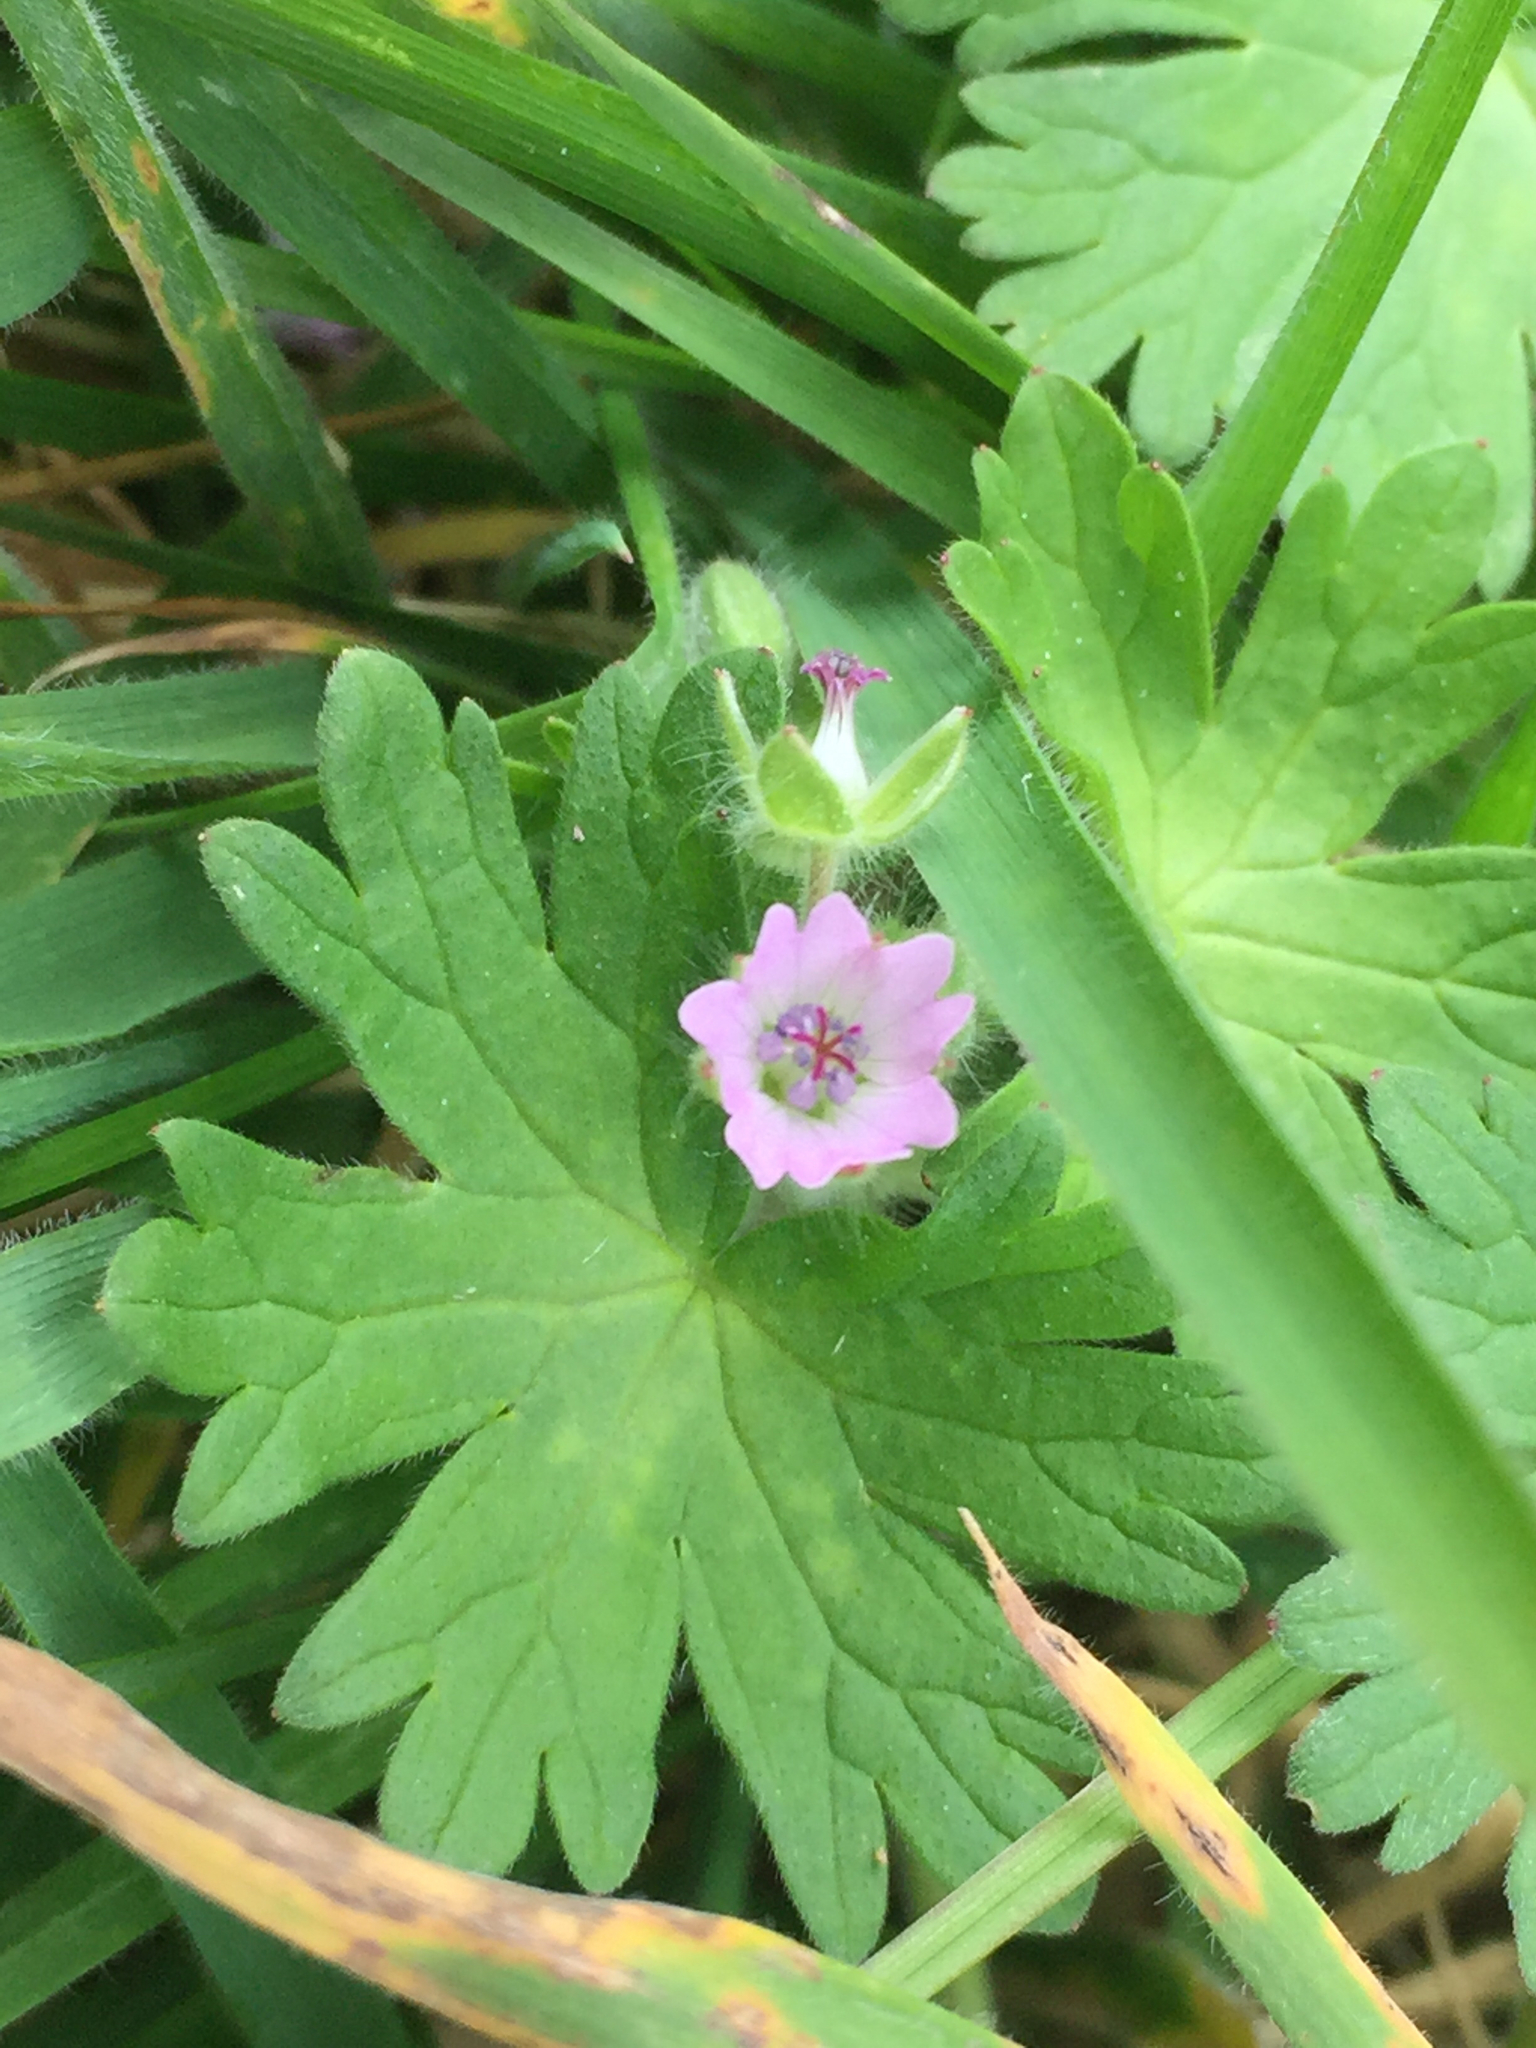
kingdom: Plantae
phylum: Tracheophyta
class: Magnoliopsida
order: Geraniales
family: Geraniaceae
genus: Geranium
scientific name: Geranium molle
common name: Dove's-foot crane's-bill
